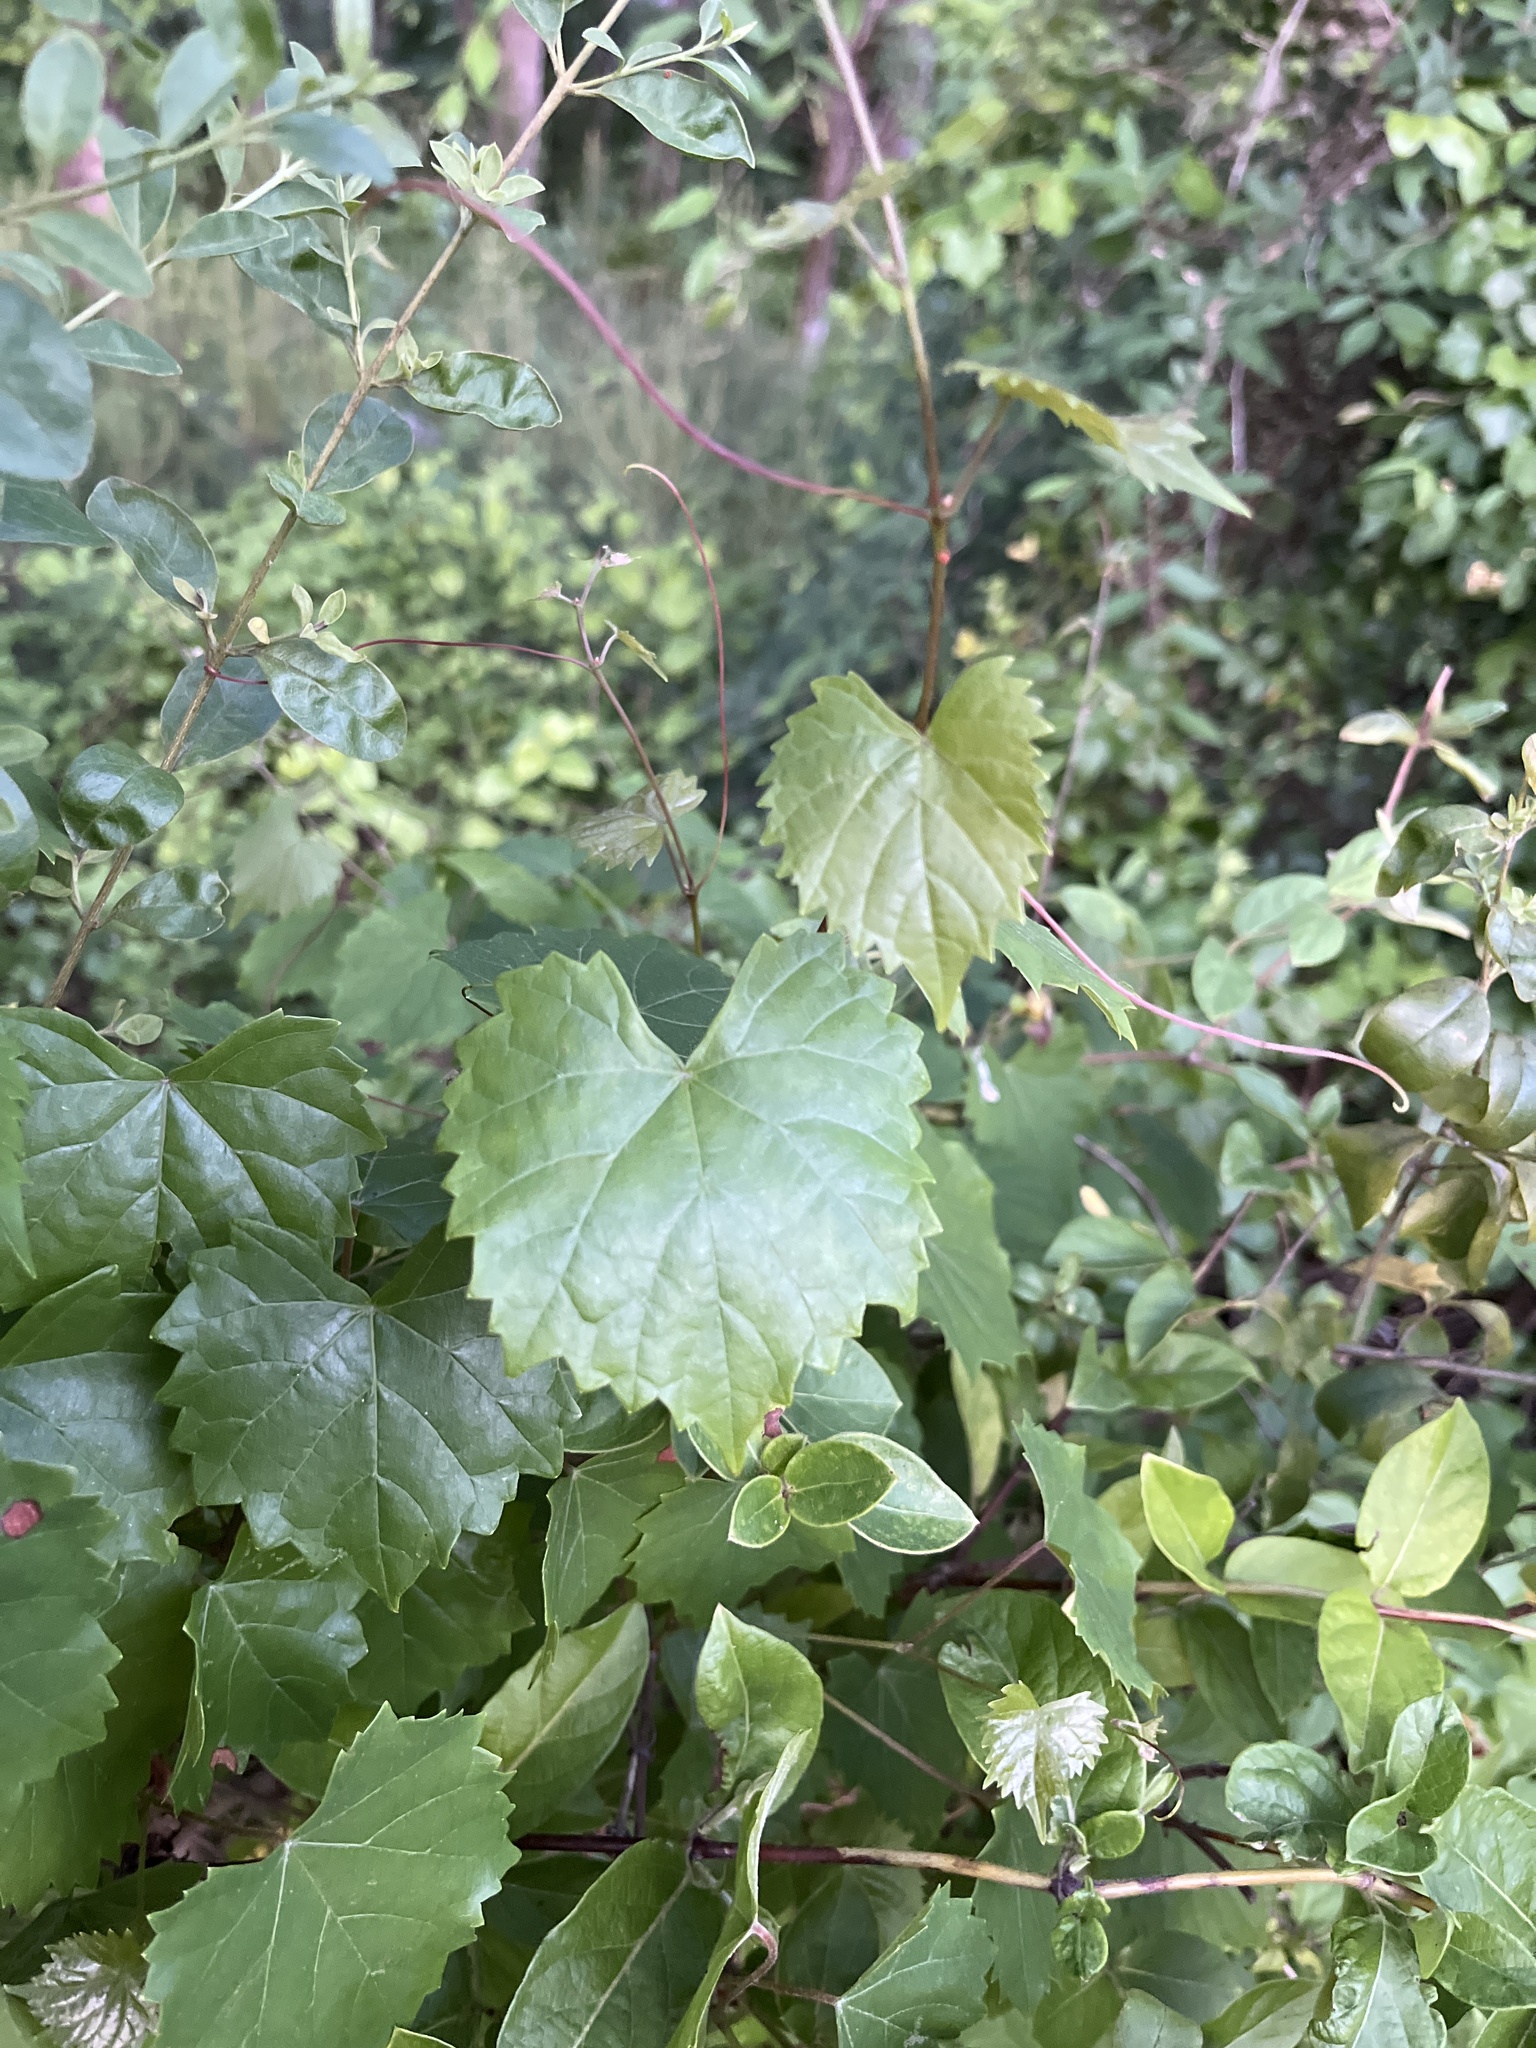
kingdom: Plantae
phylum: Tracheophyta
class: Magnoliopsida
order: Vitales
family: Vitaceae
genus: Vitis
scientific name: Vitis rotundifolia
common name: Muscadine grape
